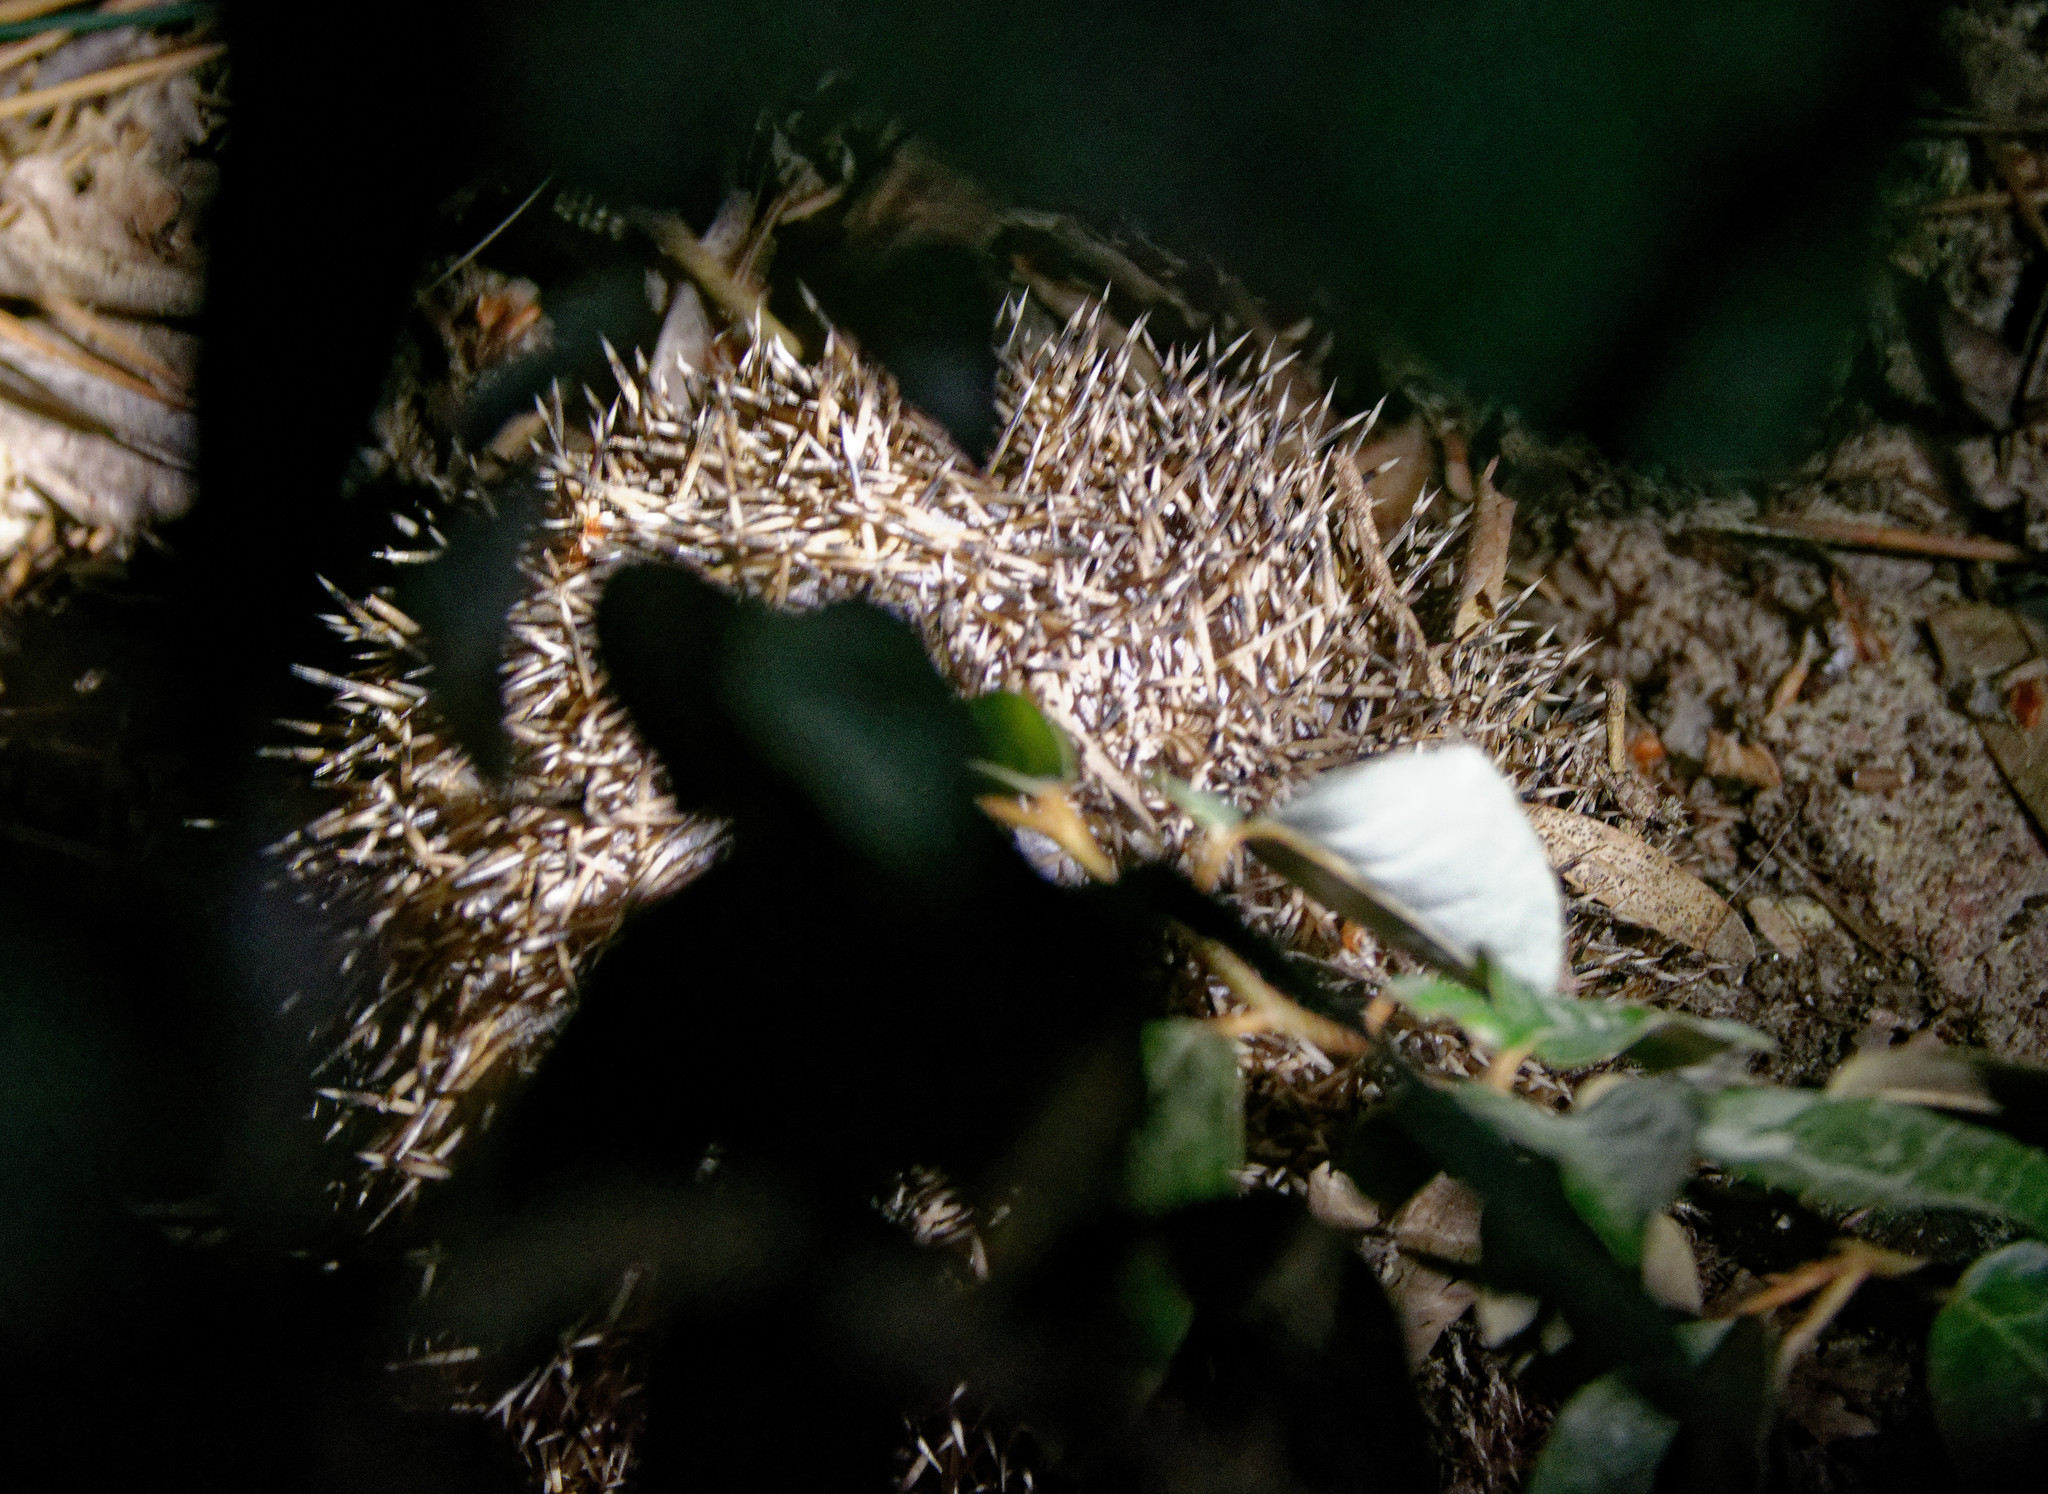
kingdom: Animalia
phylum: Chordata
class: Mammalia
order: Erinaceomorpha
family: Erinaceidae
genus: Erinaceus
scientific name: Erinaceus europaeus
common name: West european hedgehog
